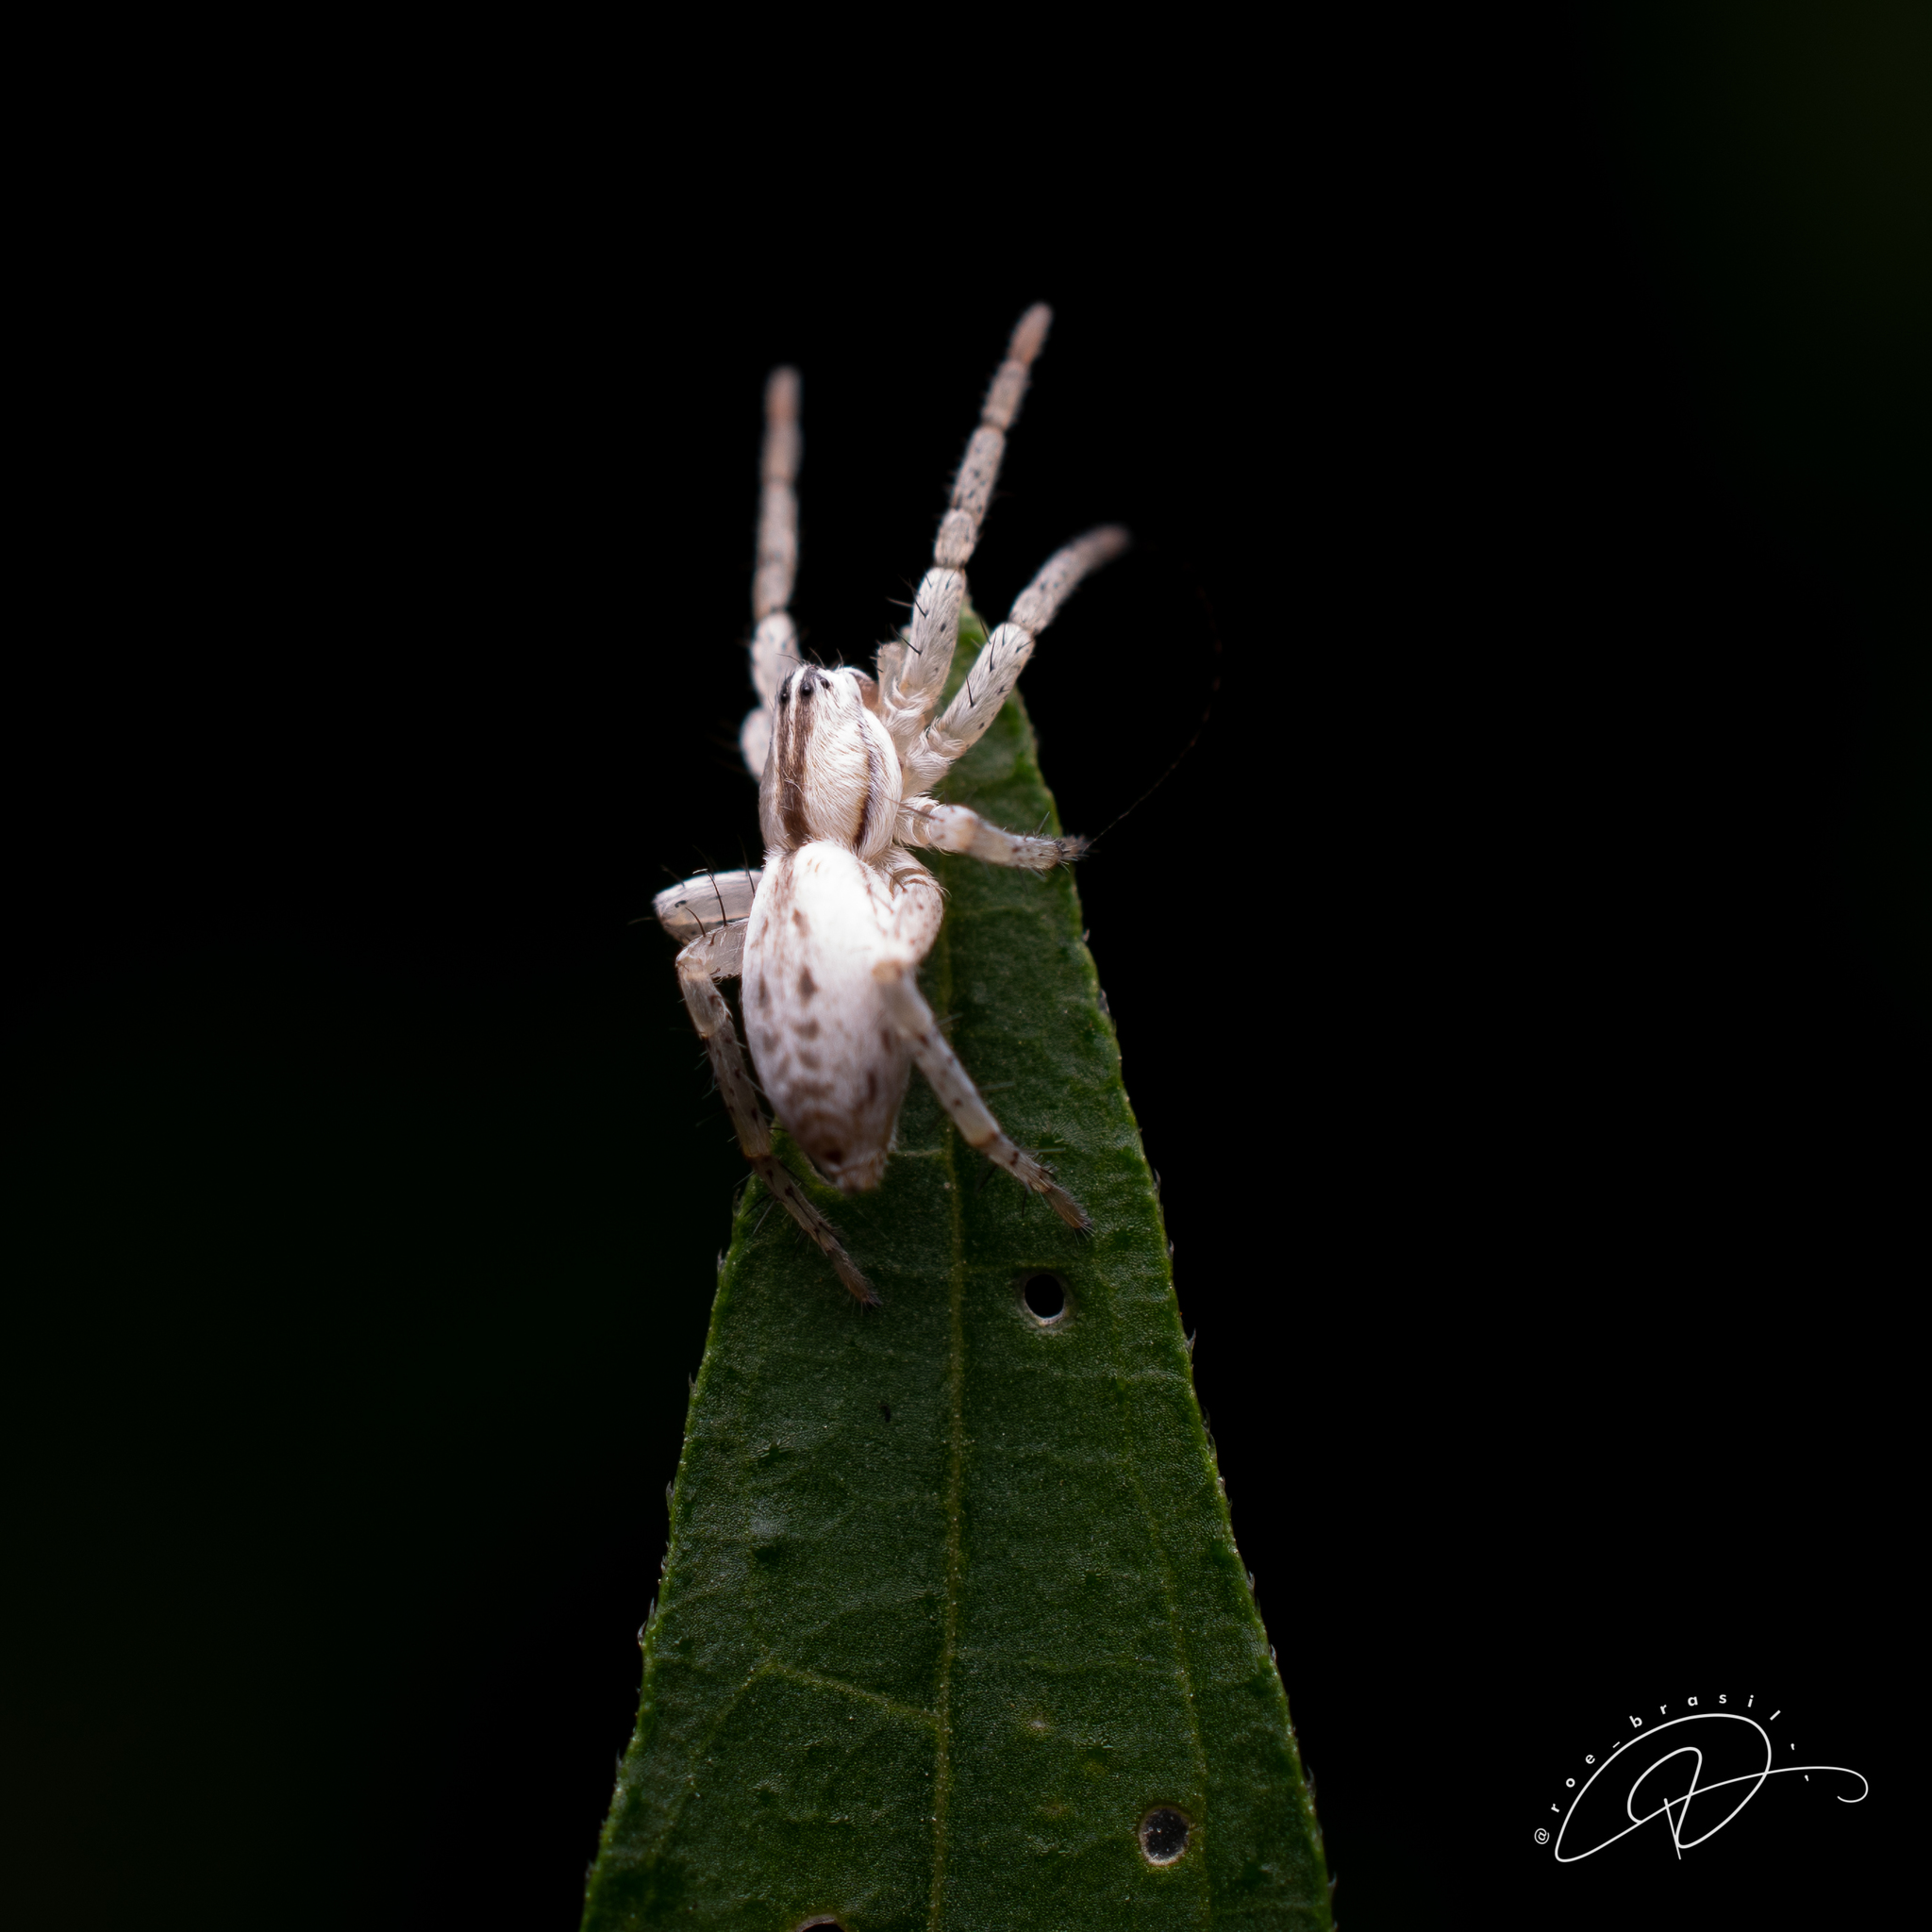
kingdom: Animalia
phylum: Arthropoda
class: Arachnida
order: Araneae
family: Anyphaenidae
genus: Arachosia
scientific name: Arachosia praesignis
